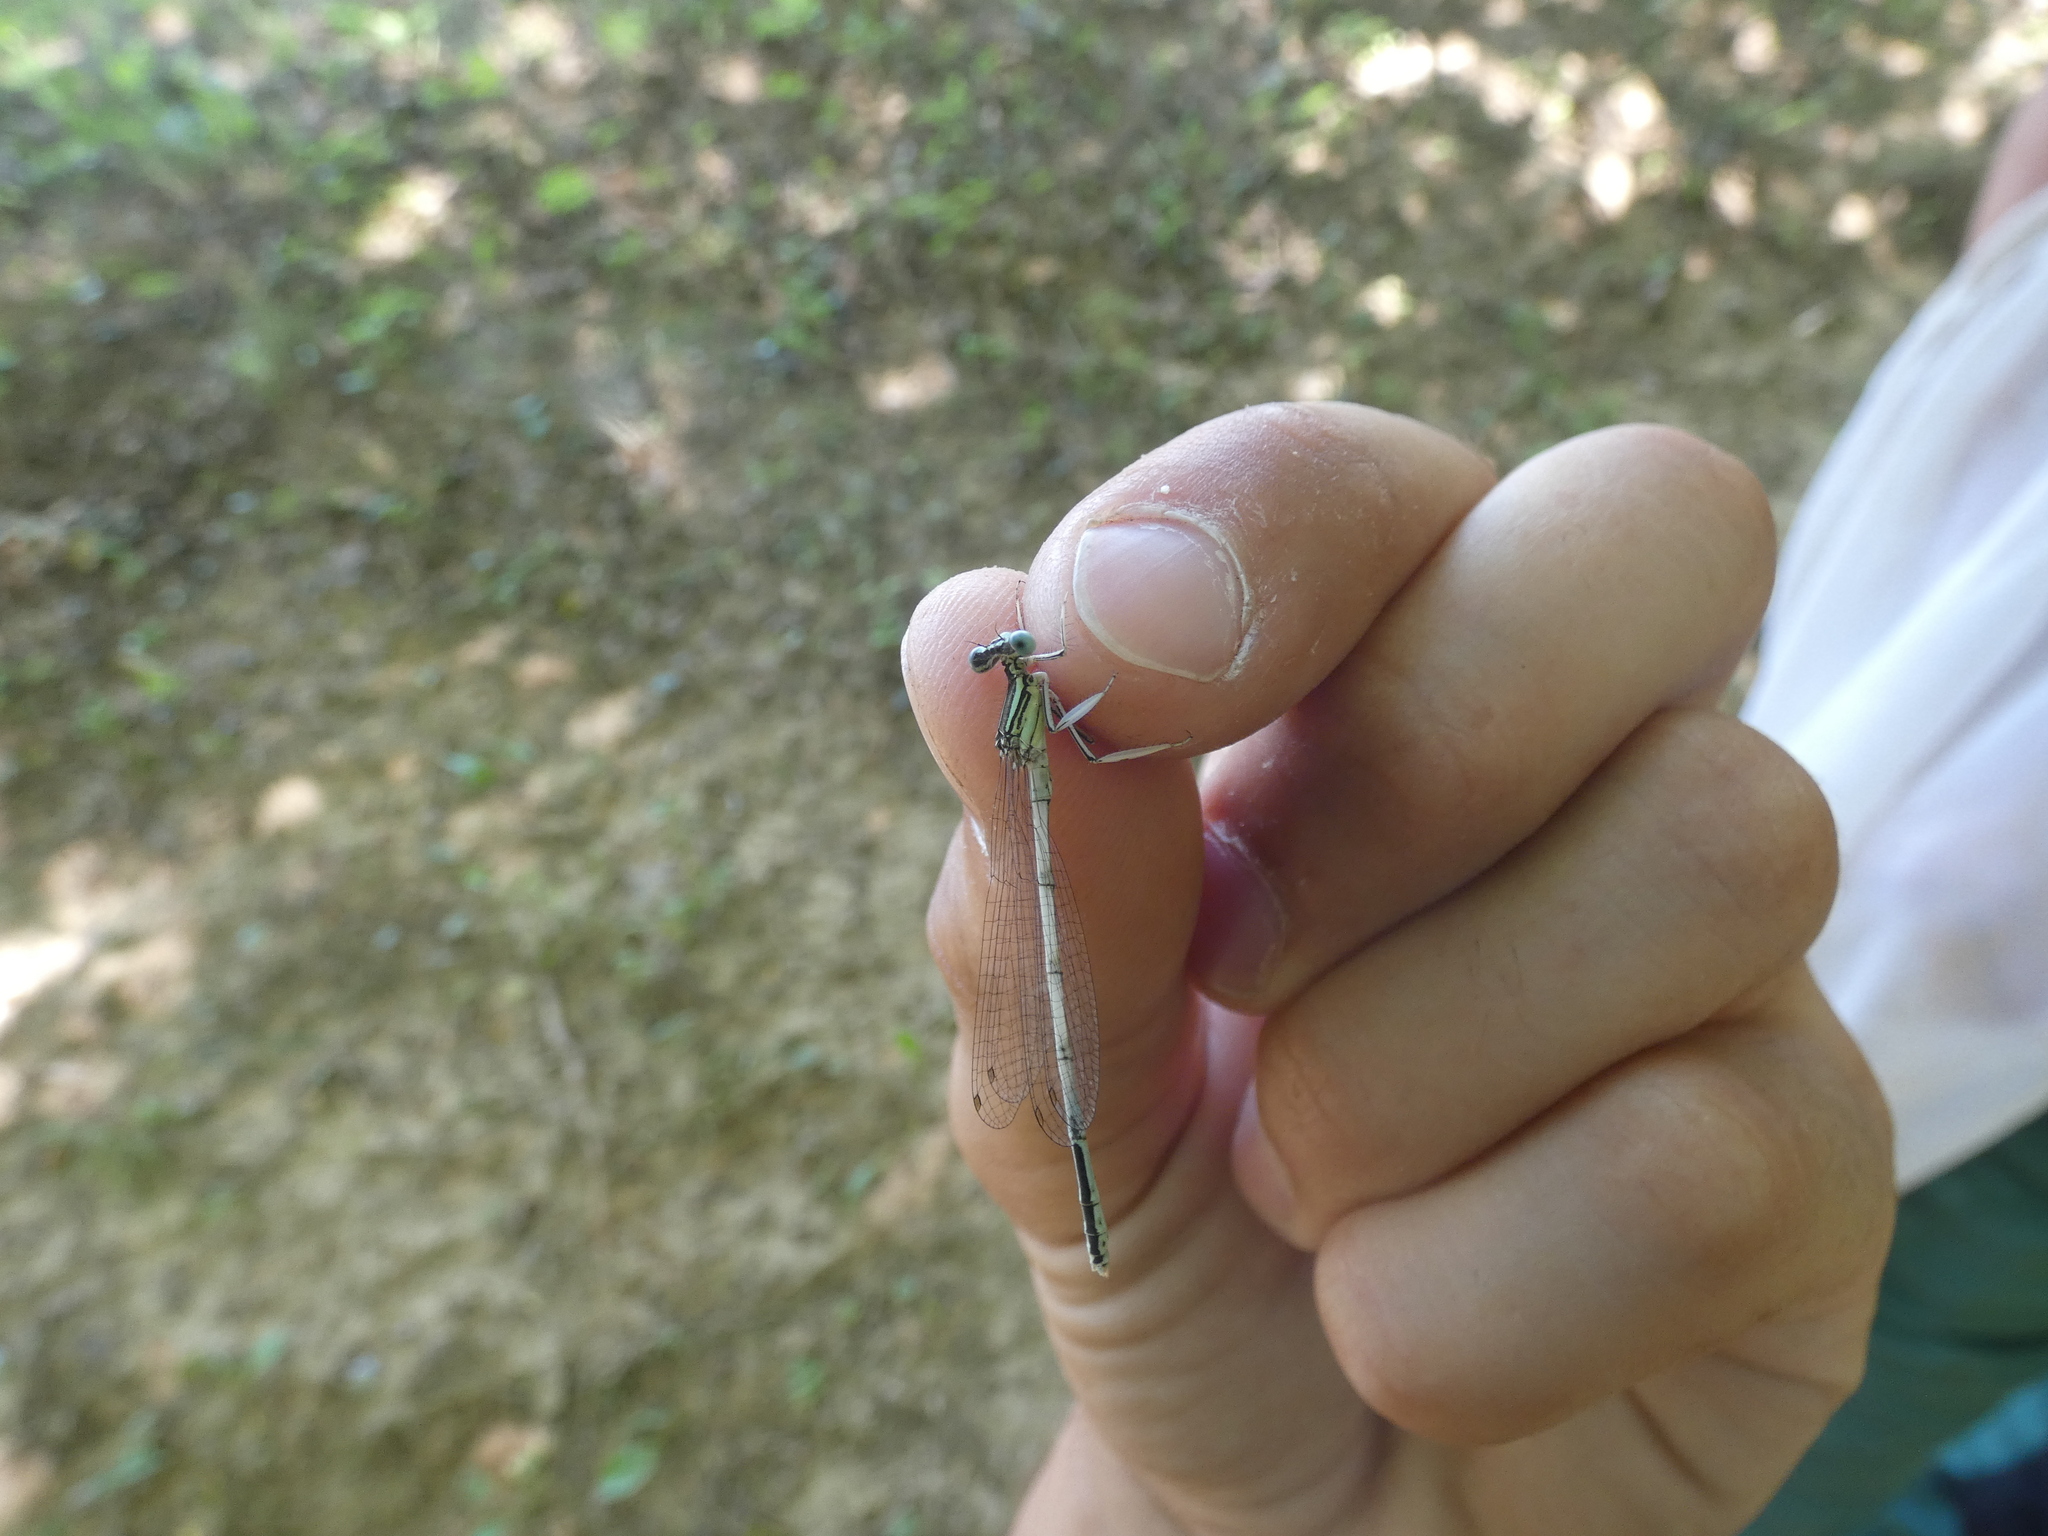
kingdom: Animalia
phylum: Arthropoda
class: Insecta
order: Odonata
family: Platycnemididae
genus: Platycnemis
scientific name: Platycnemis latipes
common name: White featherleg
